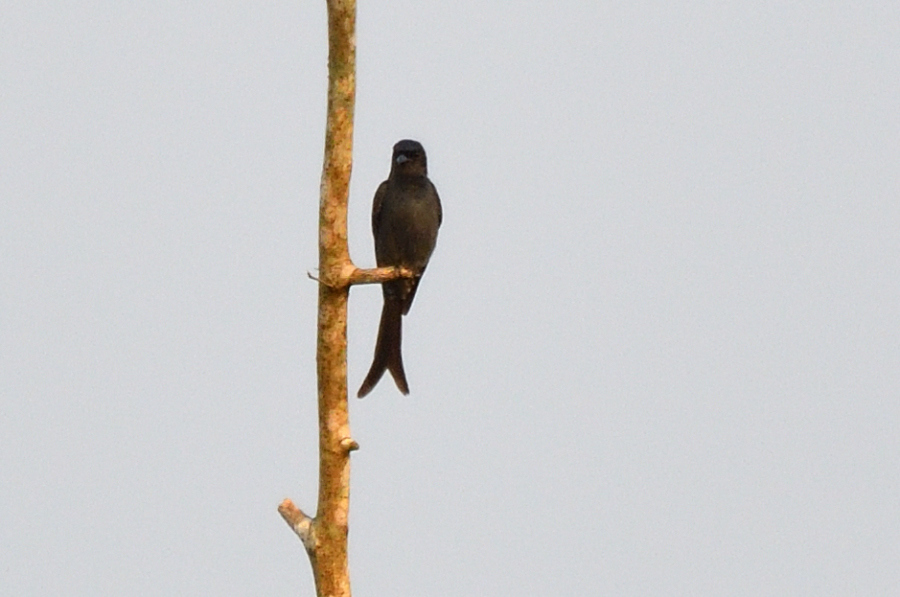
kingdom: Animalia
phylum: Chordata
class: Aves
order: Passeriformes
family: Dicruridae
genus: Dicrurus
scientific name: Dicrurus macrocercus
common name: Black drongo
